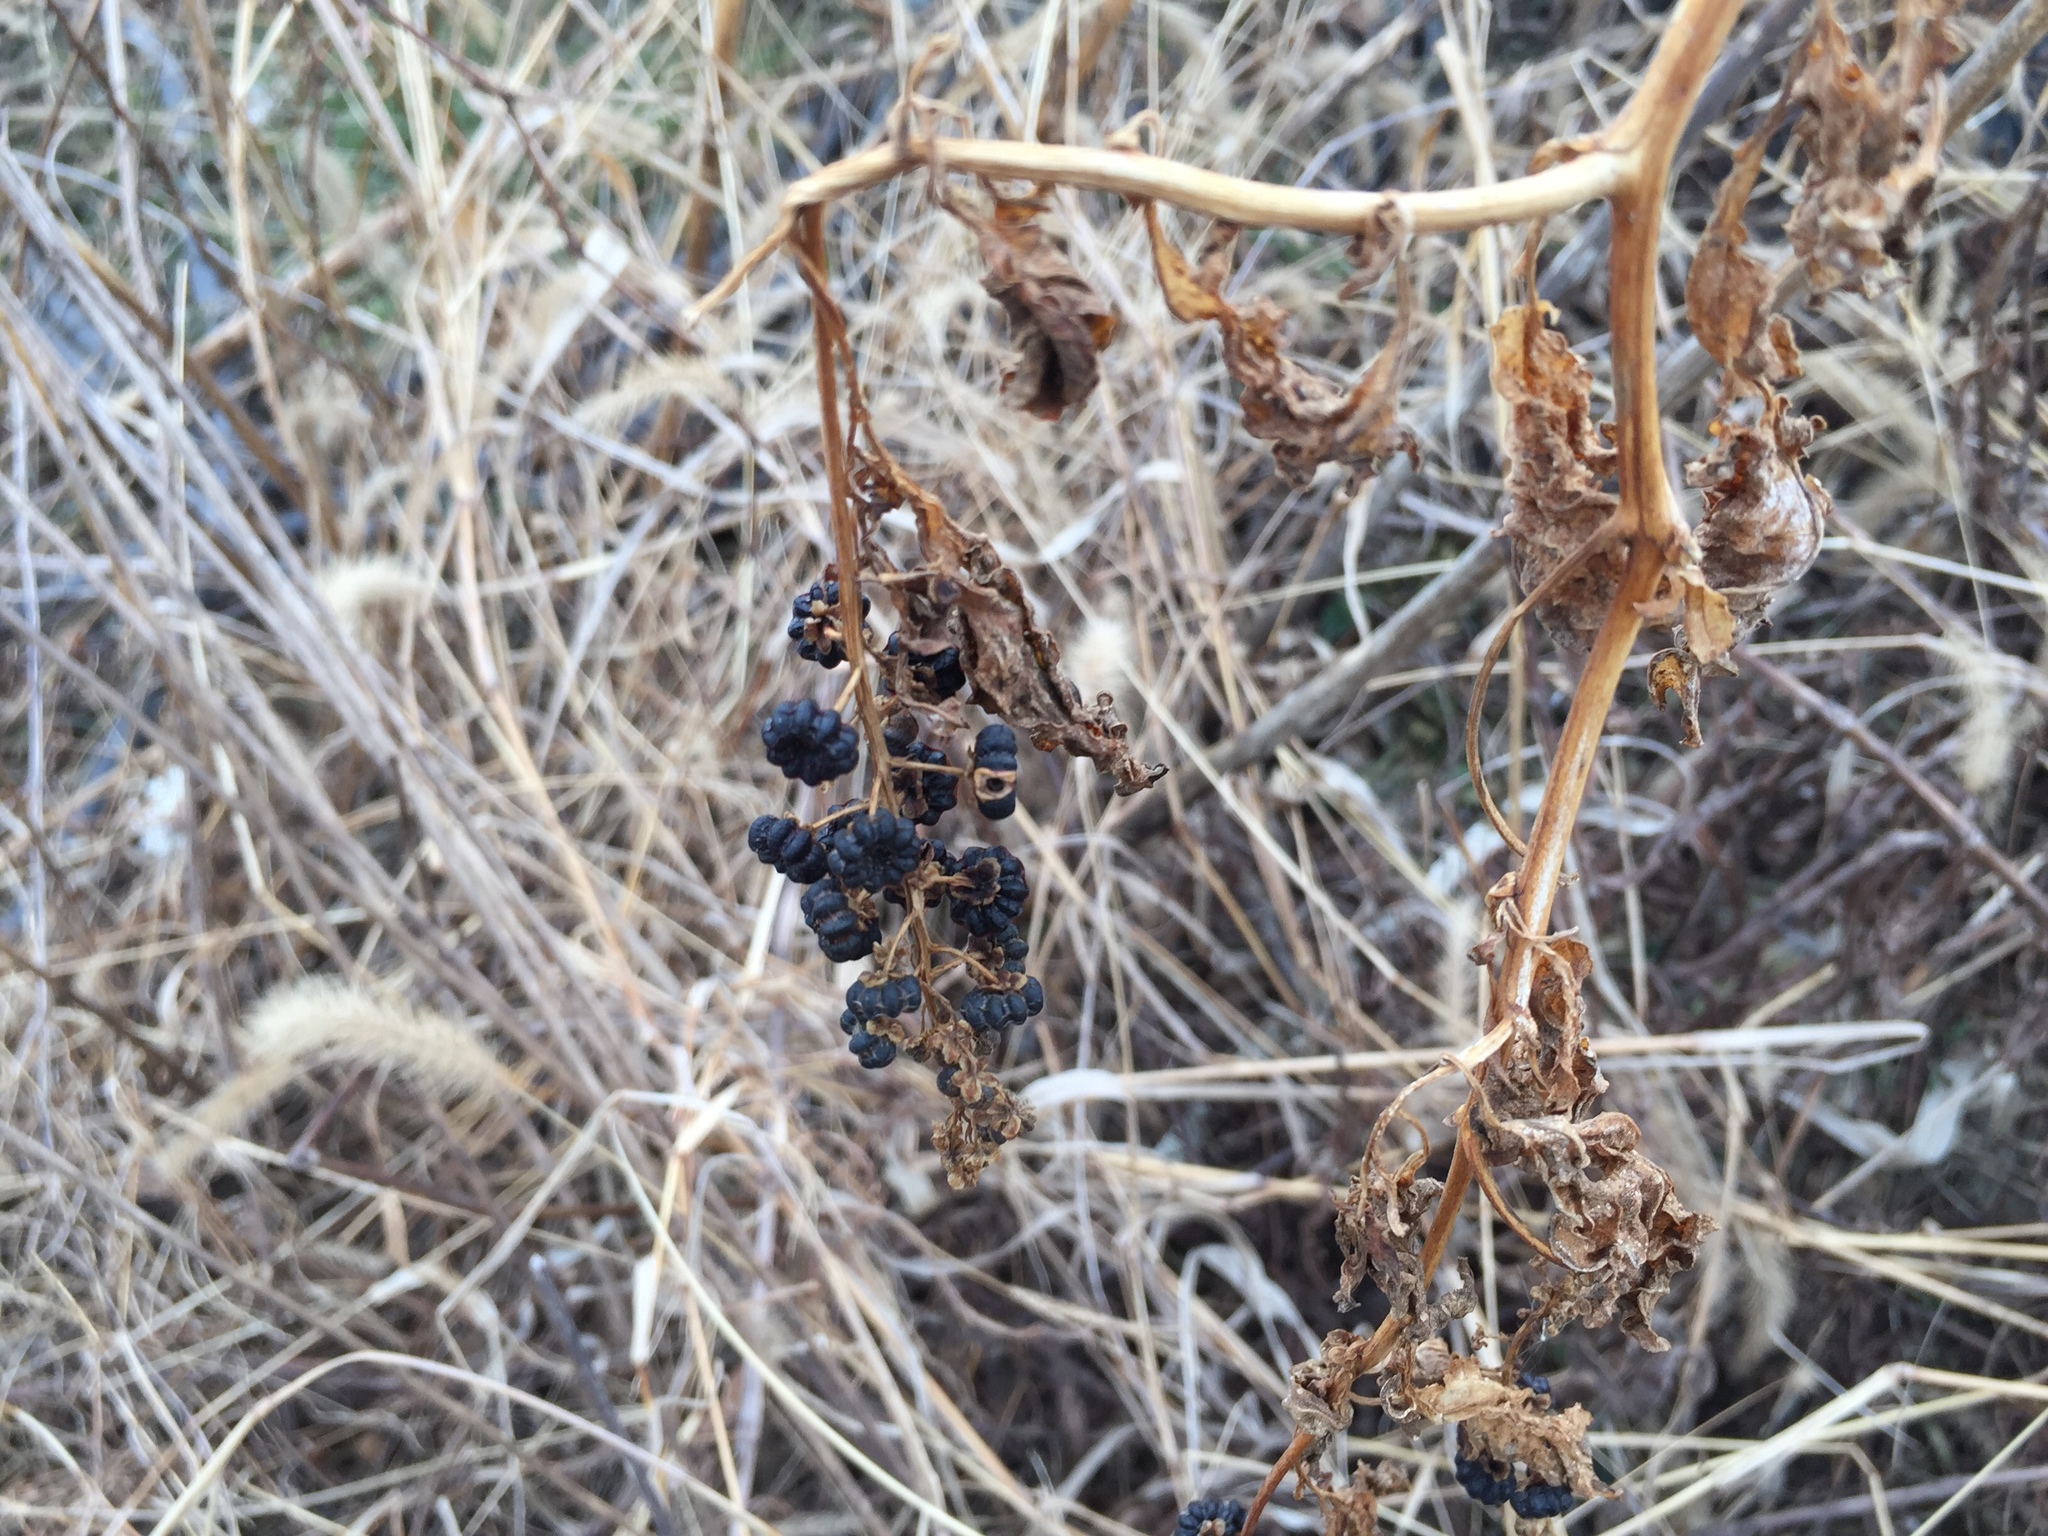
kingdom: Plantae
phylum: Tracheophyta
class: Magnoliopsida
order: Caryophyllales
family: Phytolaccaceae
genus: Phytolacca
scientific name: Phytolacca americana
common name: American pokeweed
